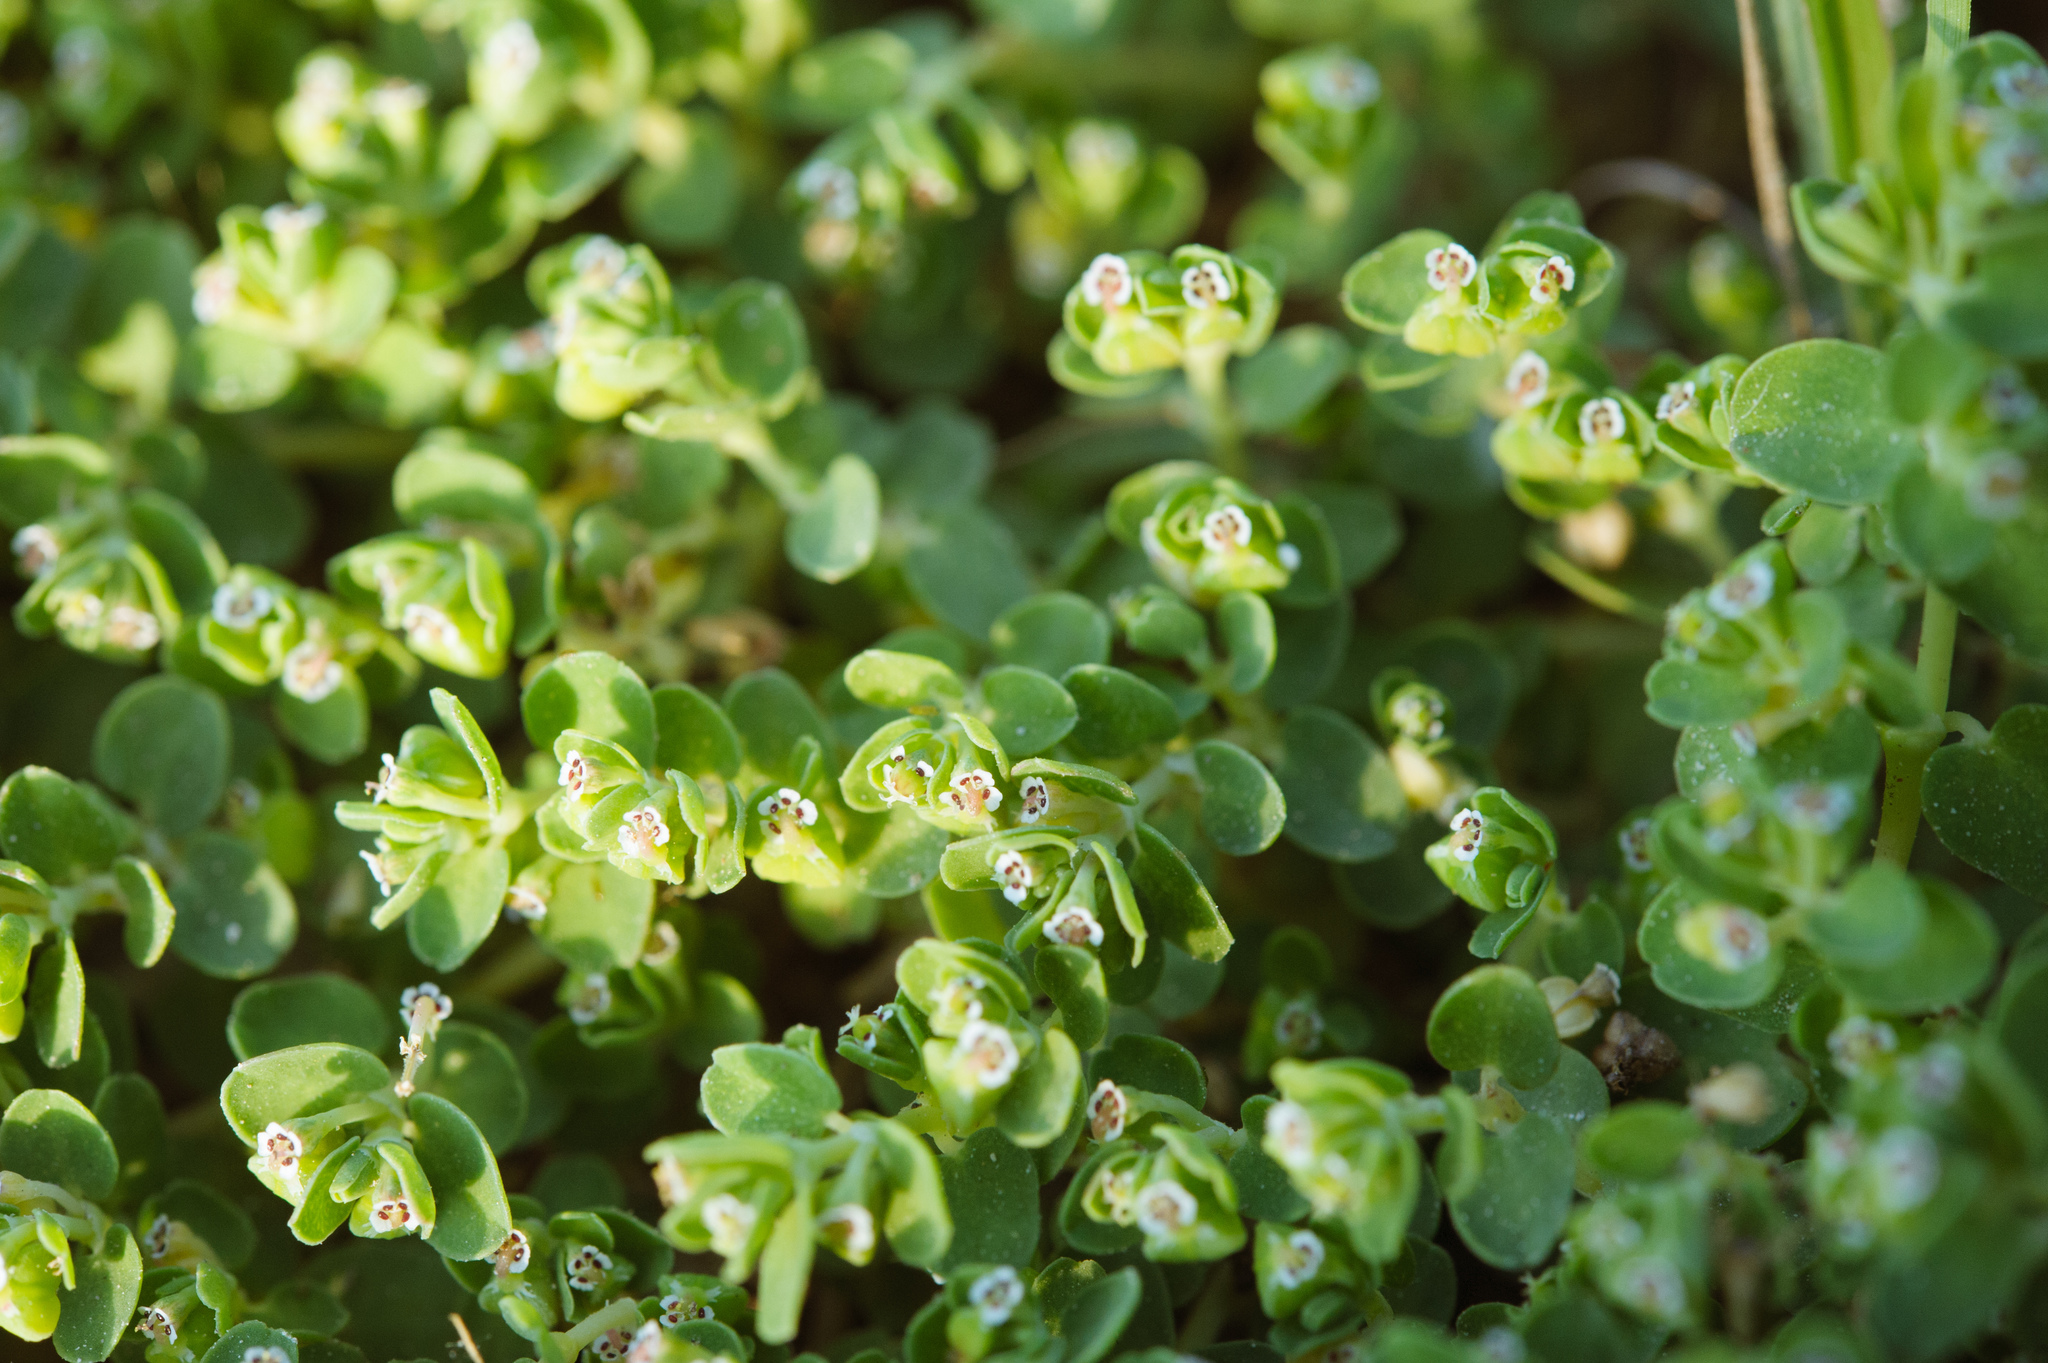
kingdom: Plantae
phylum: Tracheophyta
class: Magnoliopsida
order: Malpighiales
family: Euphorbiaceae
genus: Euphorbia
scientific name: Euphorbia serpens
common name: Matted sandmat
